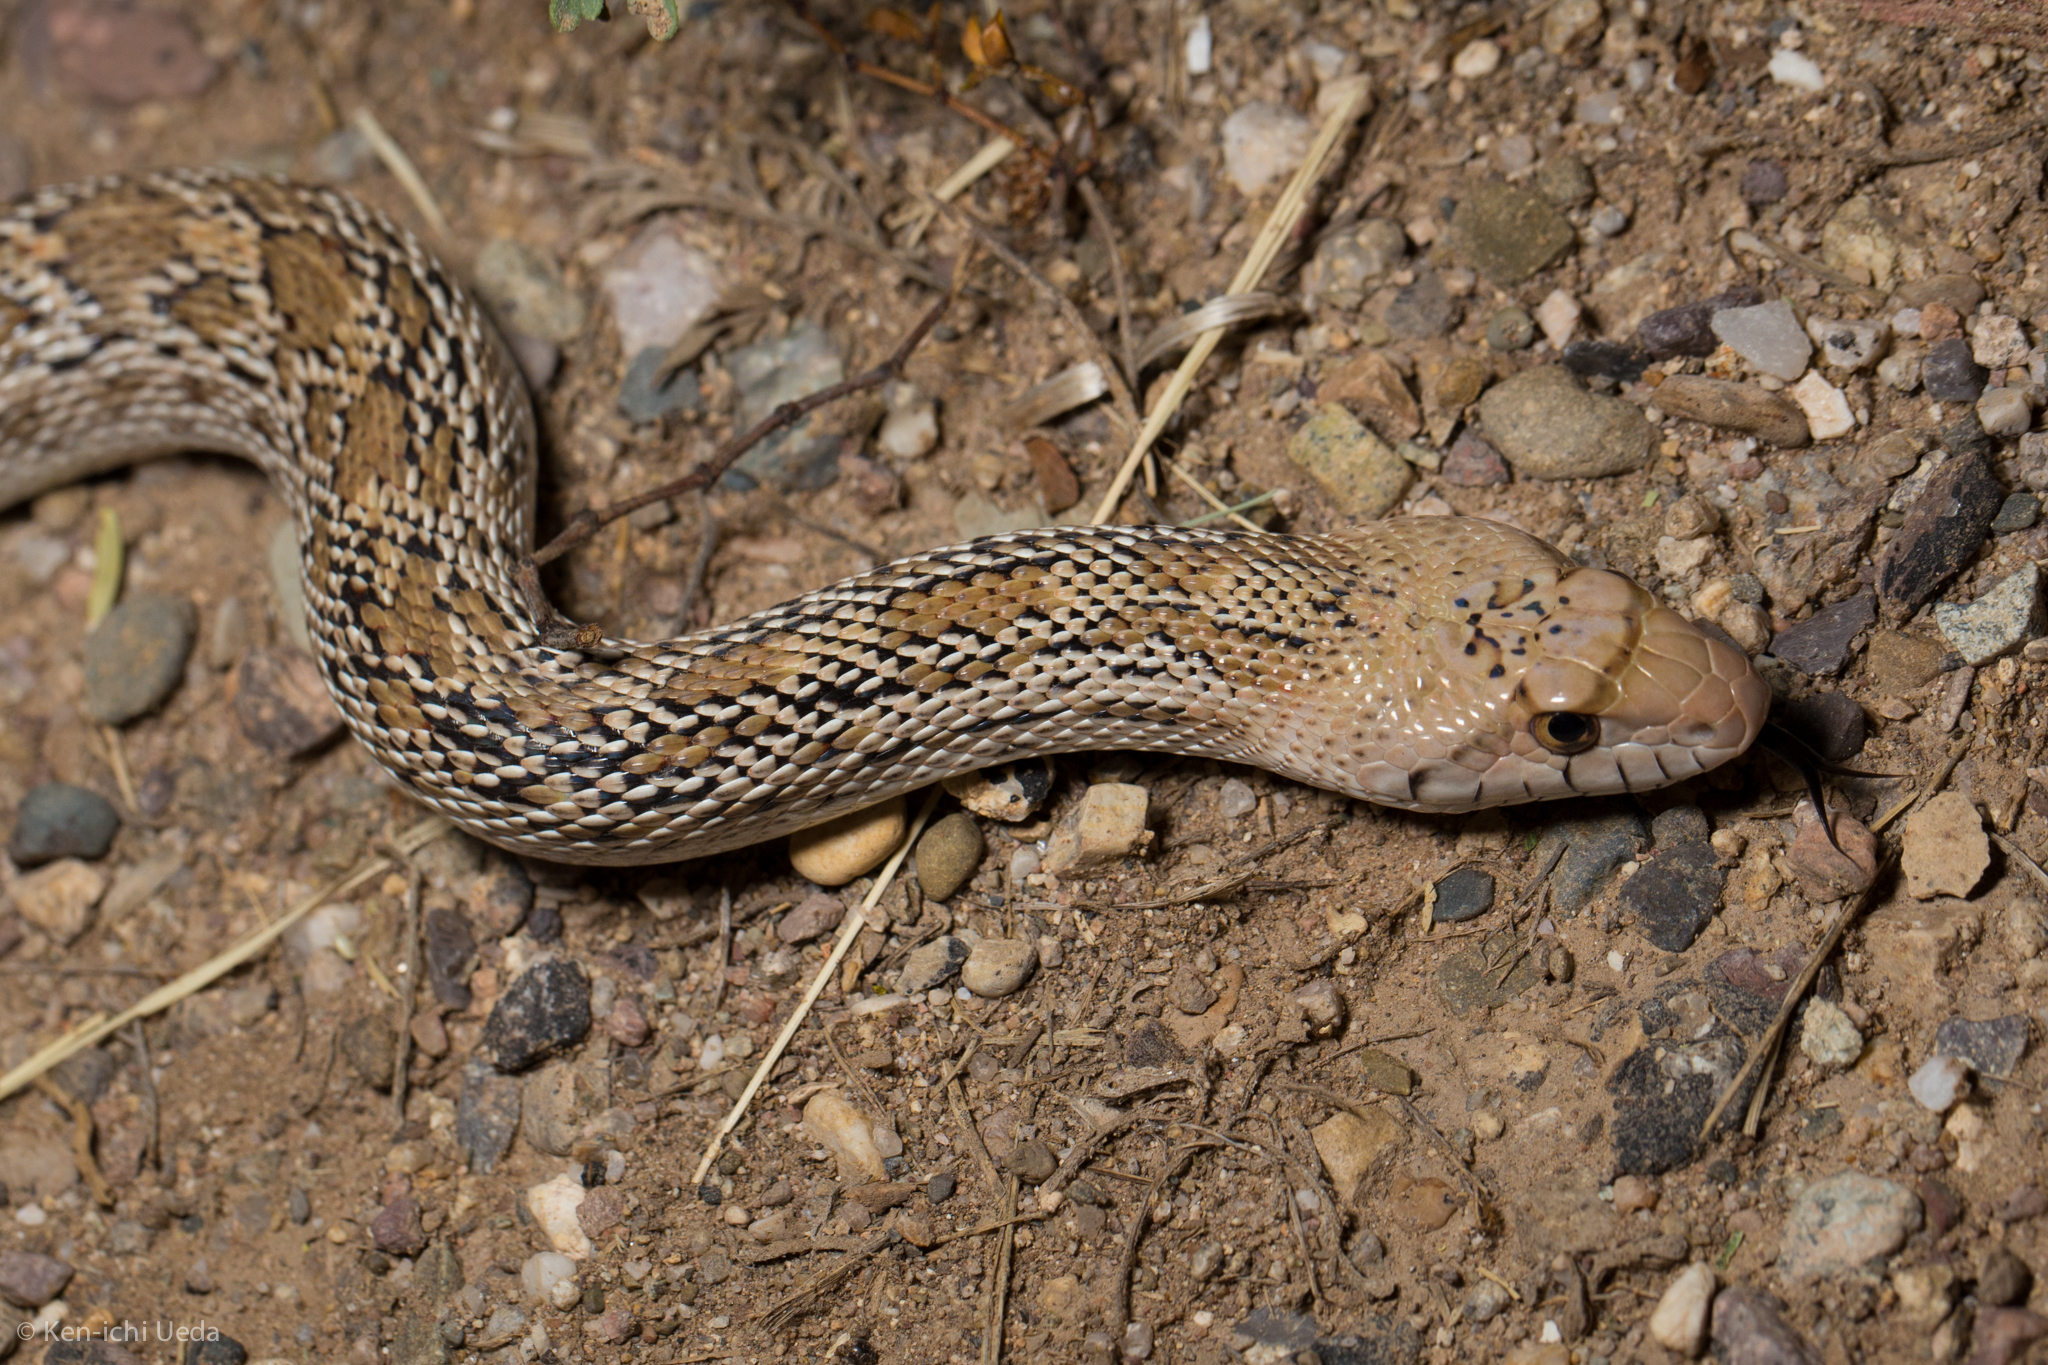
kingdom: Animalia
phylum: Chordata
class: Squamata
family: Colubridae
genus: Pituophis
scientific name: Pituophis catenifer
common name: Gopher snake
